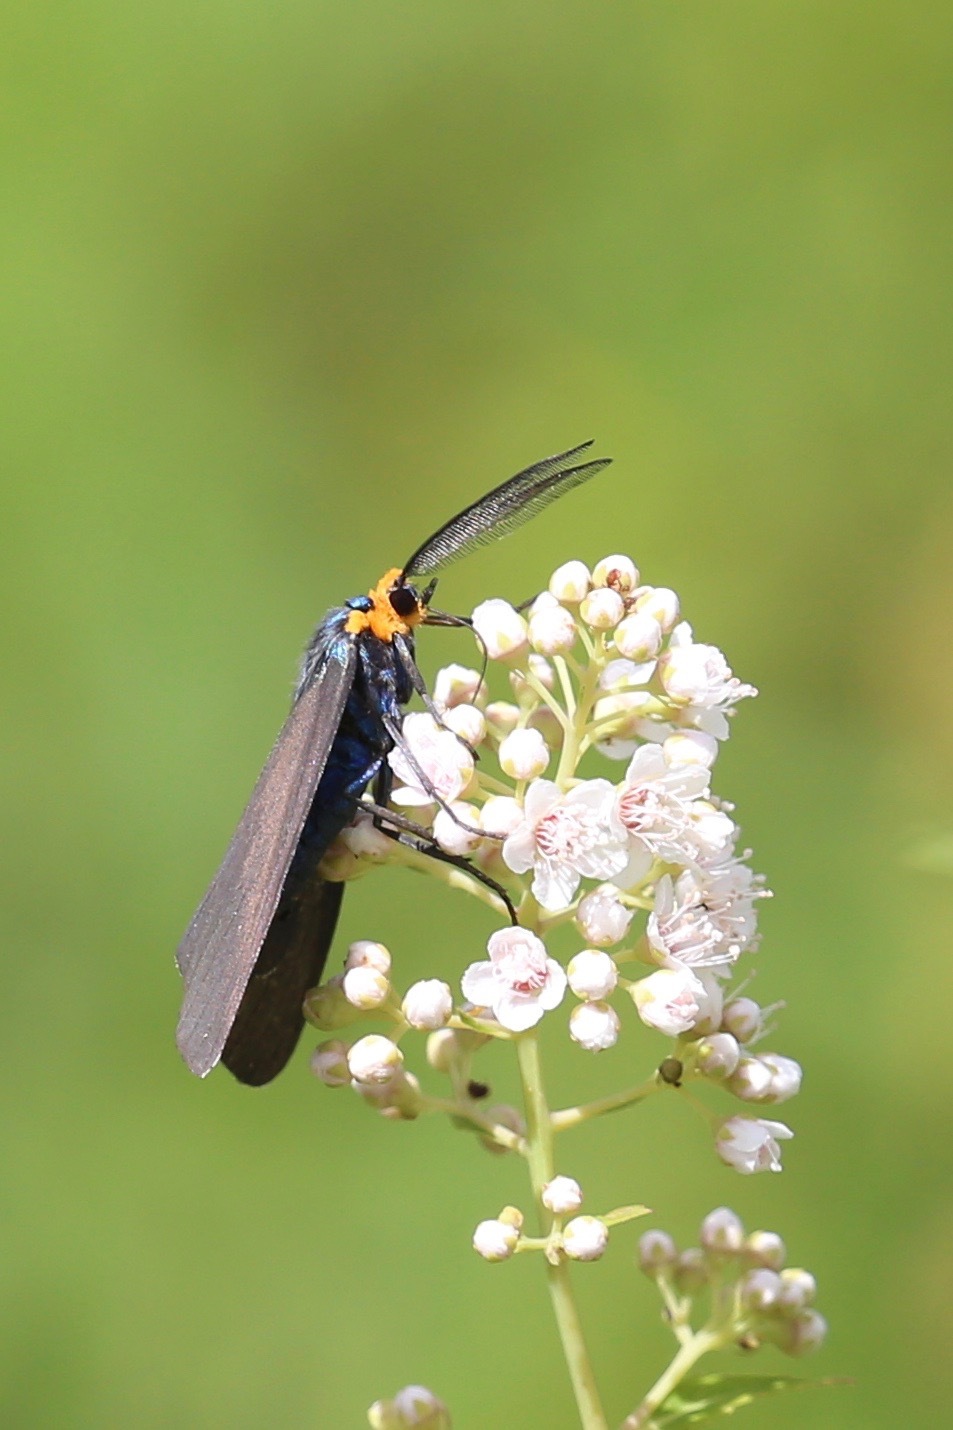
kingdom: Animalia
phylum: Arthropoda
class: Insecta
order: Lepidoptera
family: Erebidae
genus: Ctenucha
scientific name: Ctenucha virginica
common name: Virginia ctenucha moth
